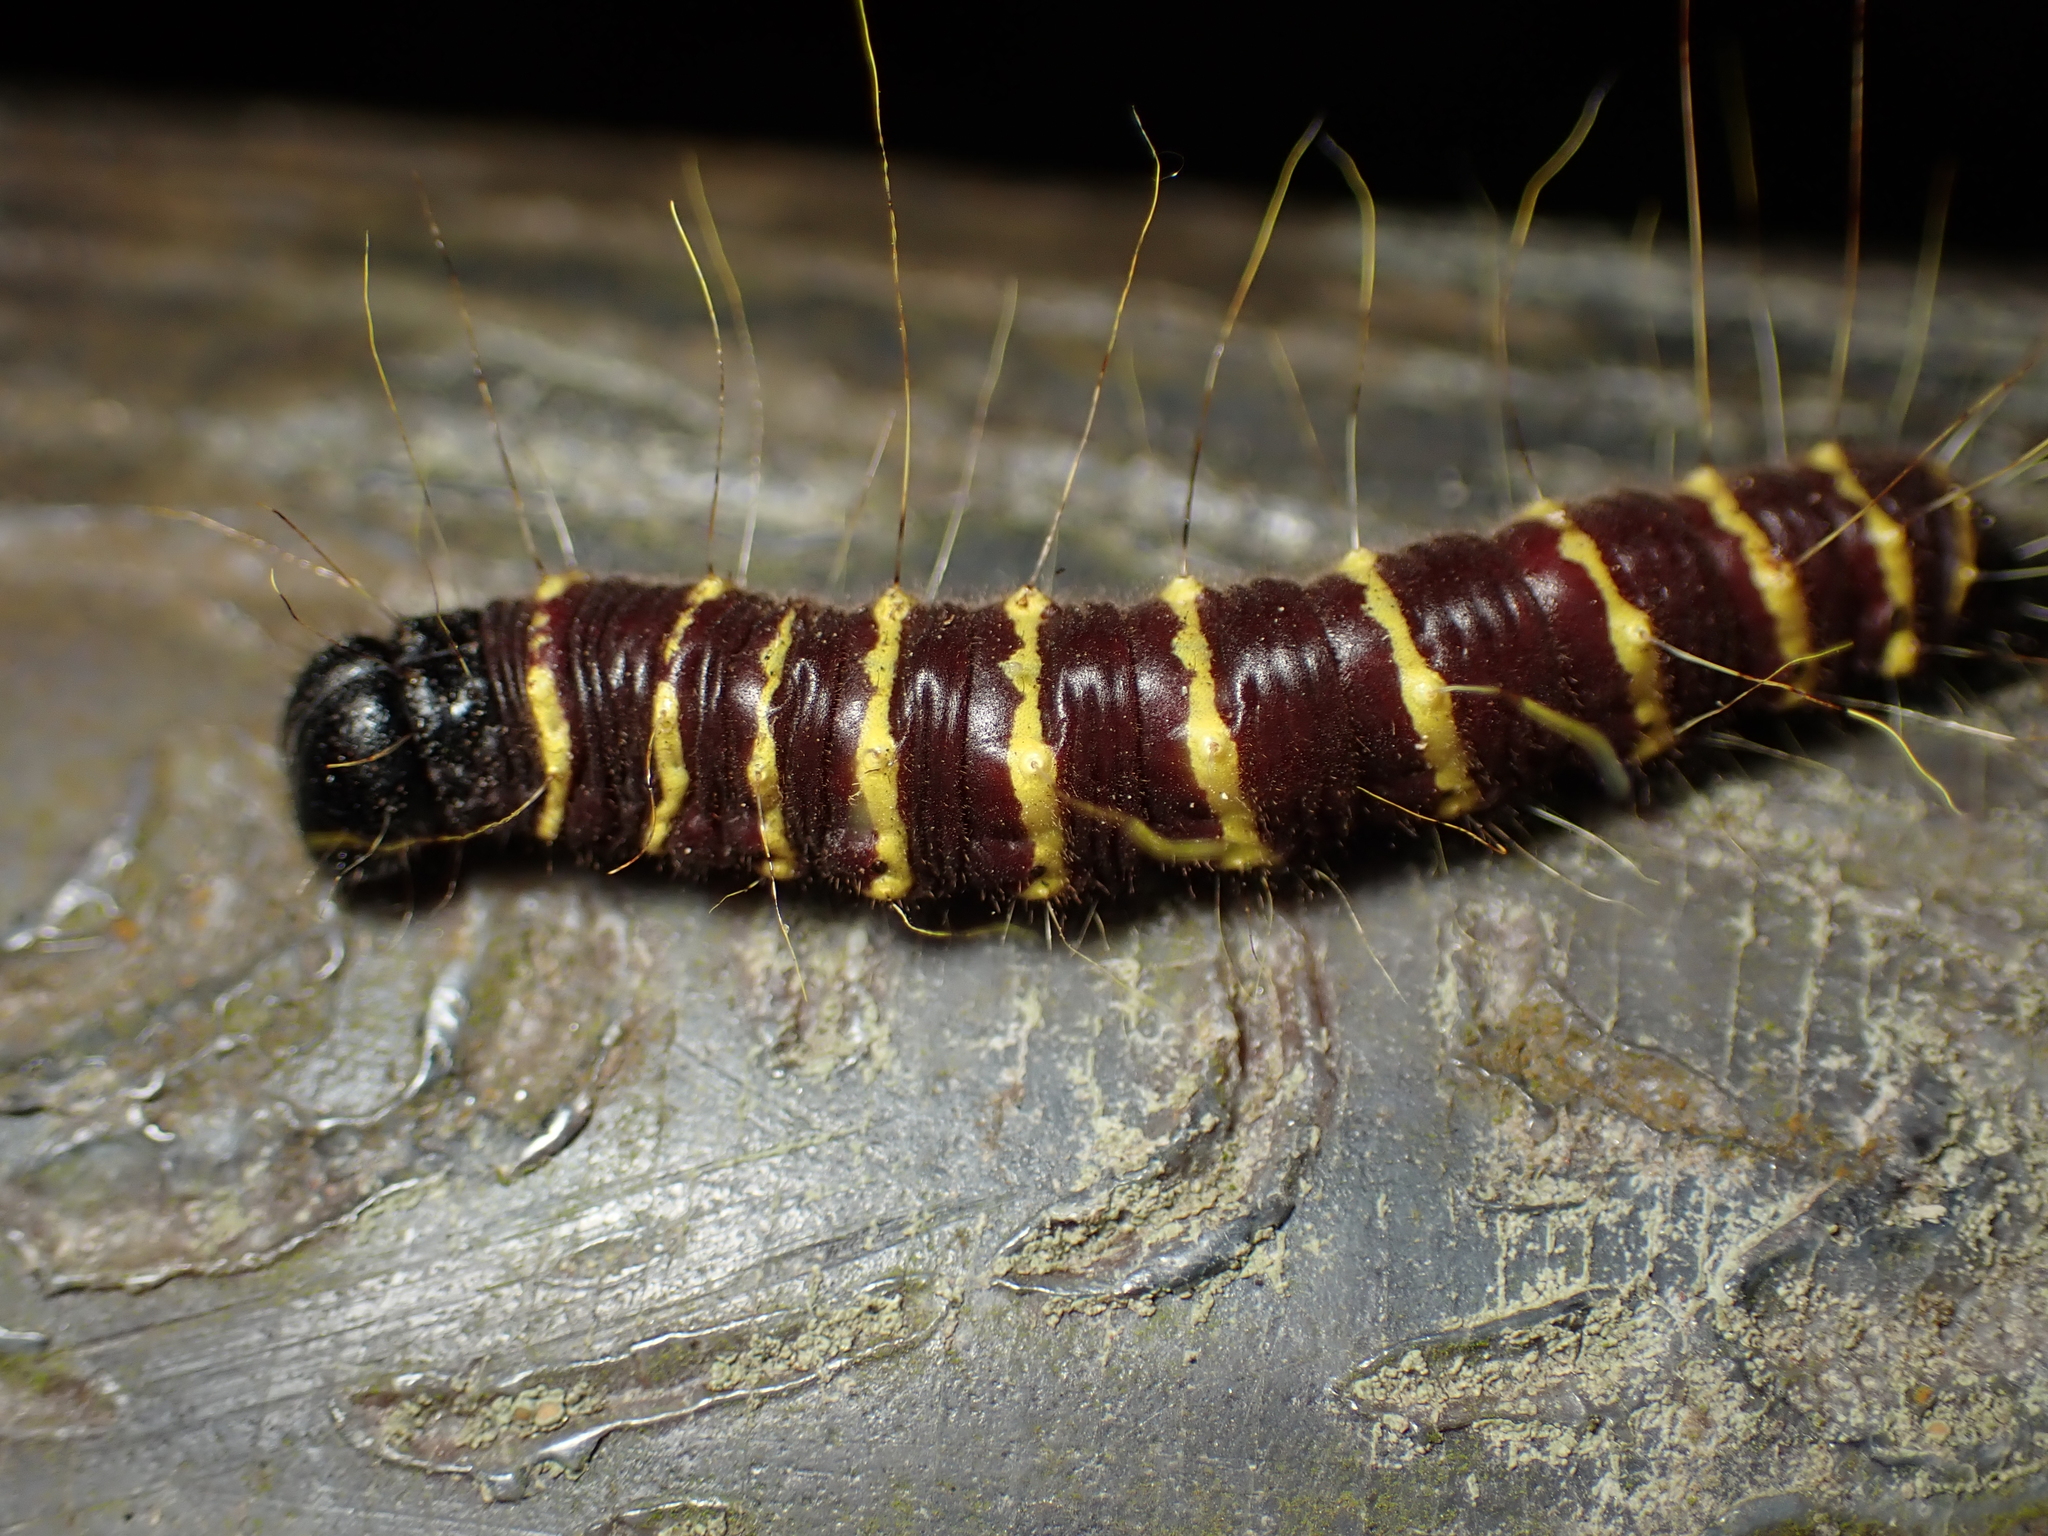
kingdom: Animalia
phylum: Arthropoda
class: Insecta
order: Lepidoptera
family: Pieridae
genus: Delias
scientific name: Delias pasithoe
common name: Red-base jezebel
